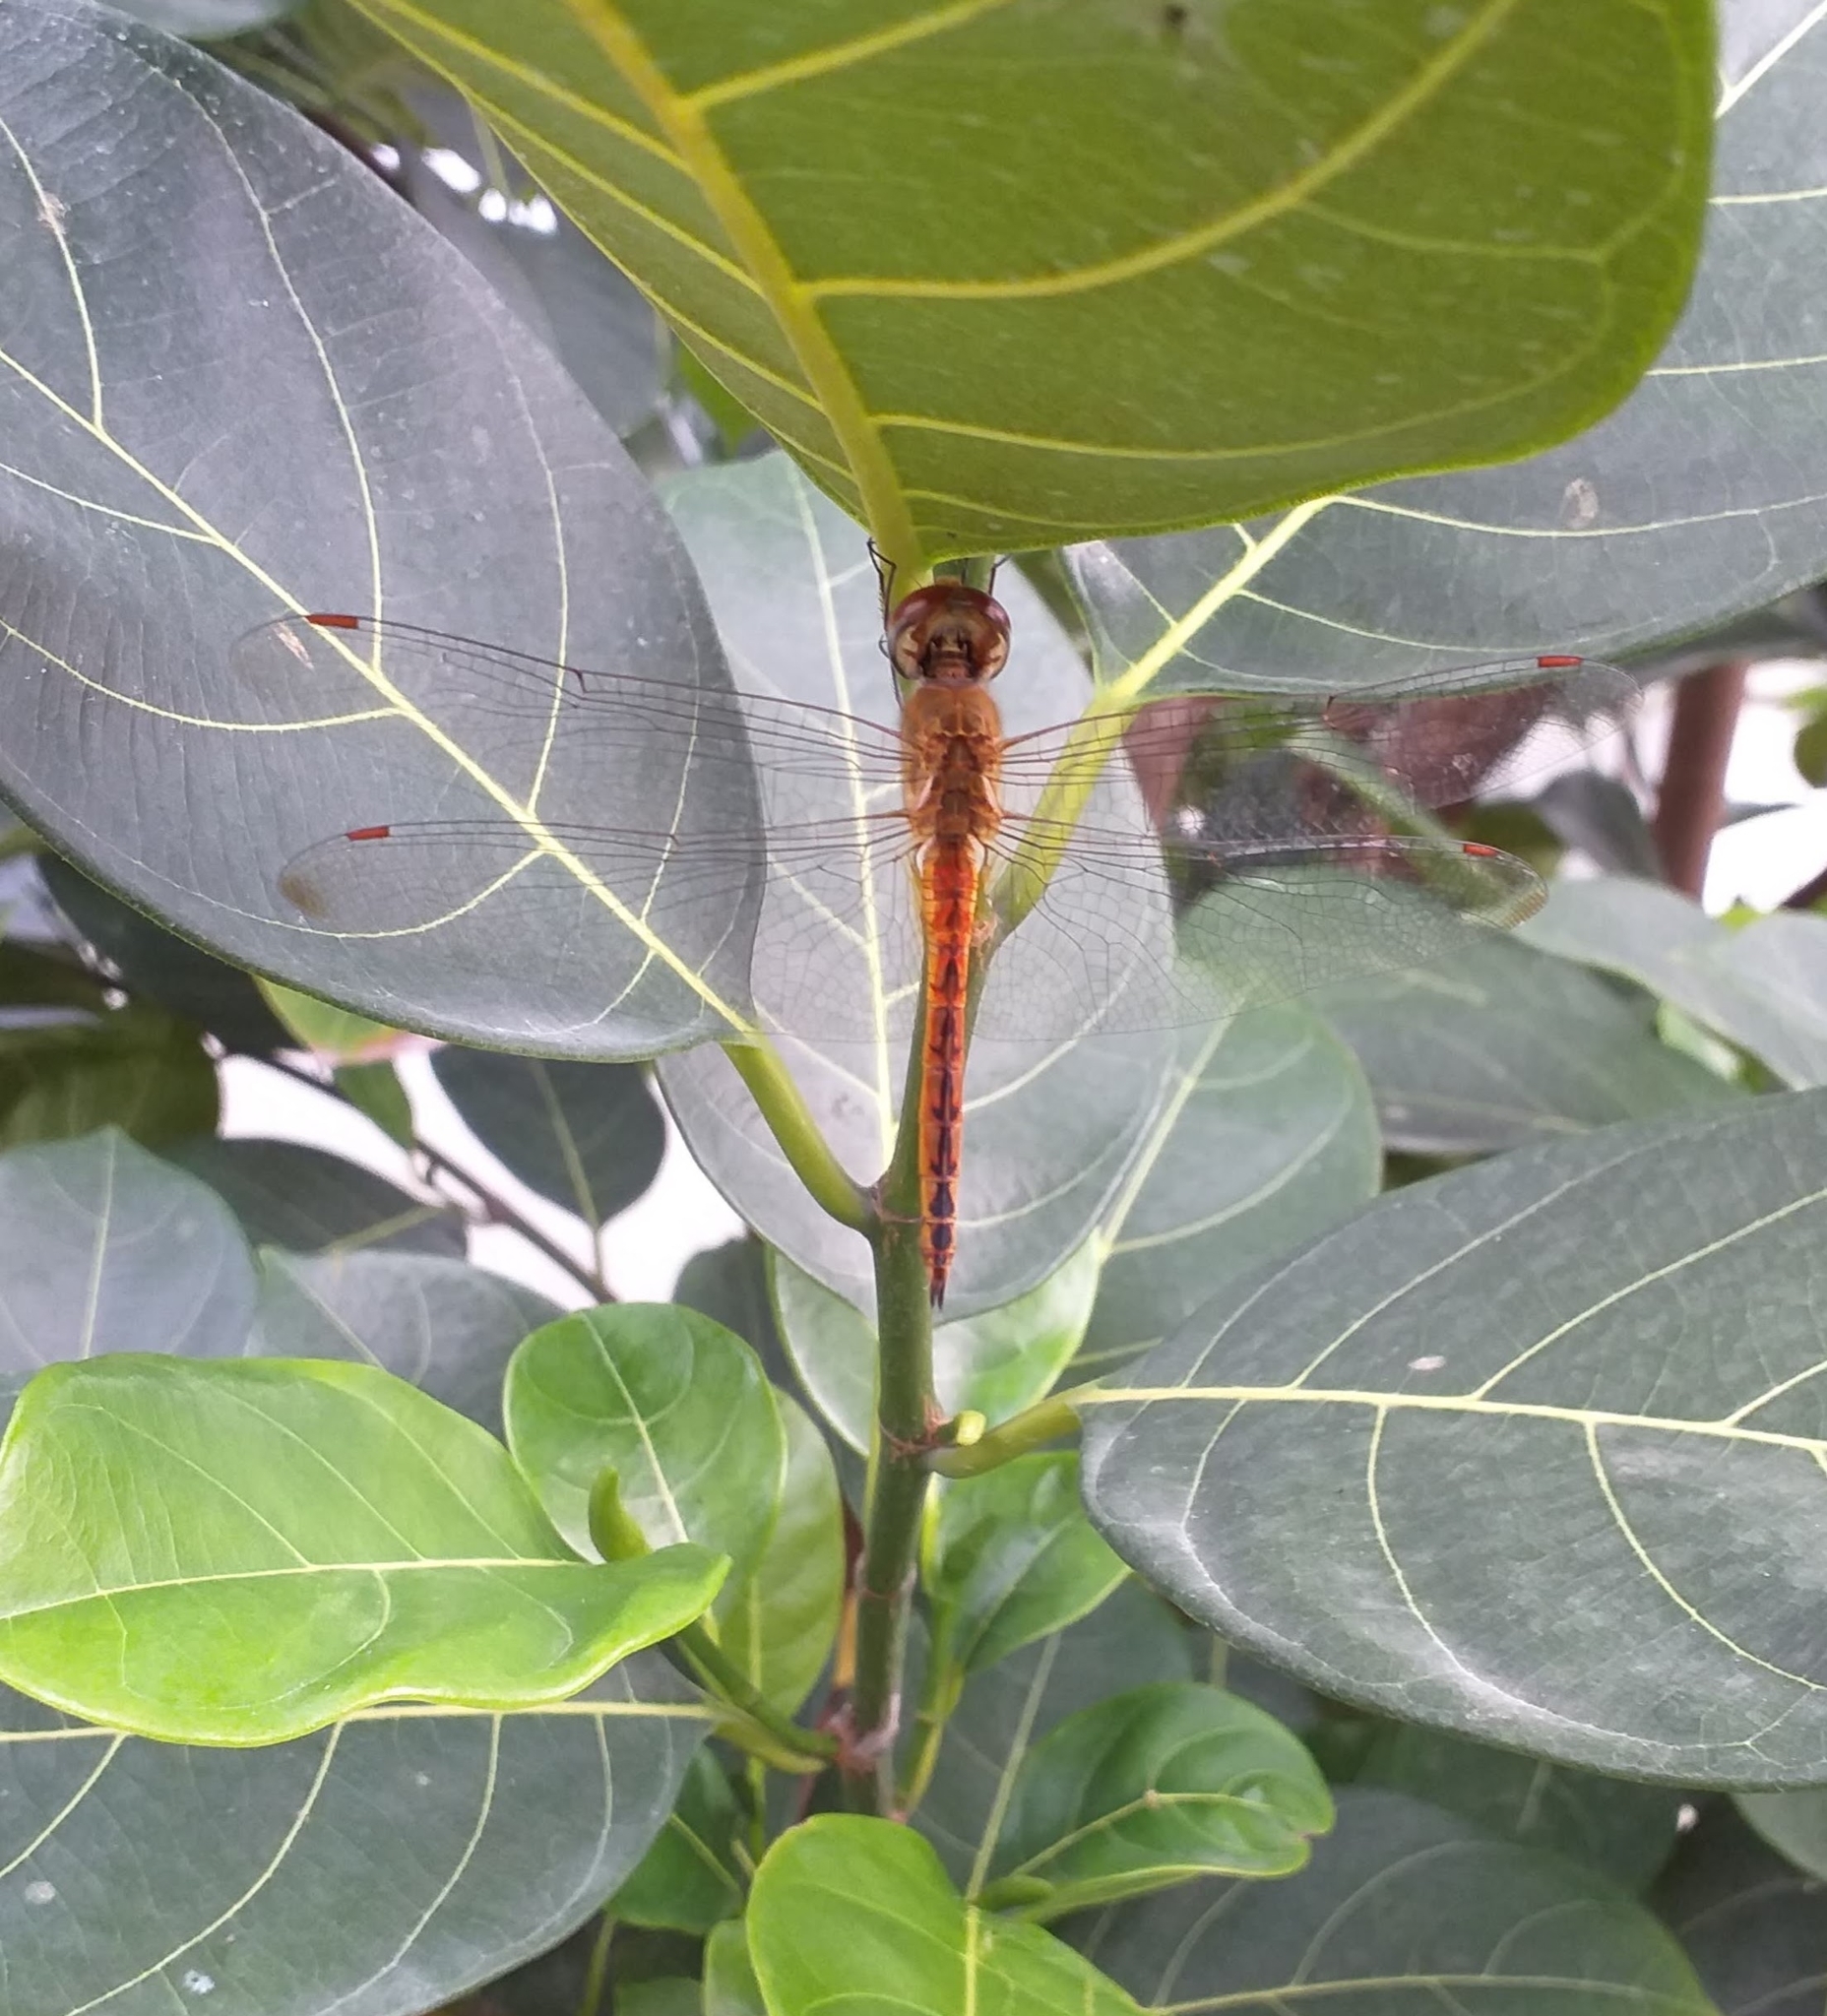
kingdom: Animalia
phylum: Arthropoda
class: Insecta
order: Odonata
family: Libellulidae
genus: Pantala
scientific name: Pantala flavescens
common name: Wandering glider
